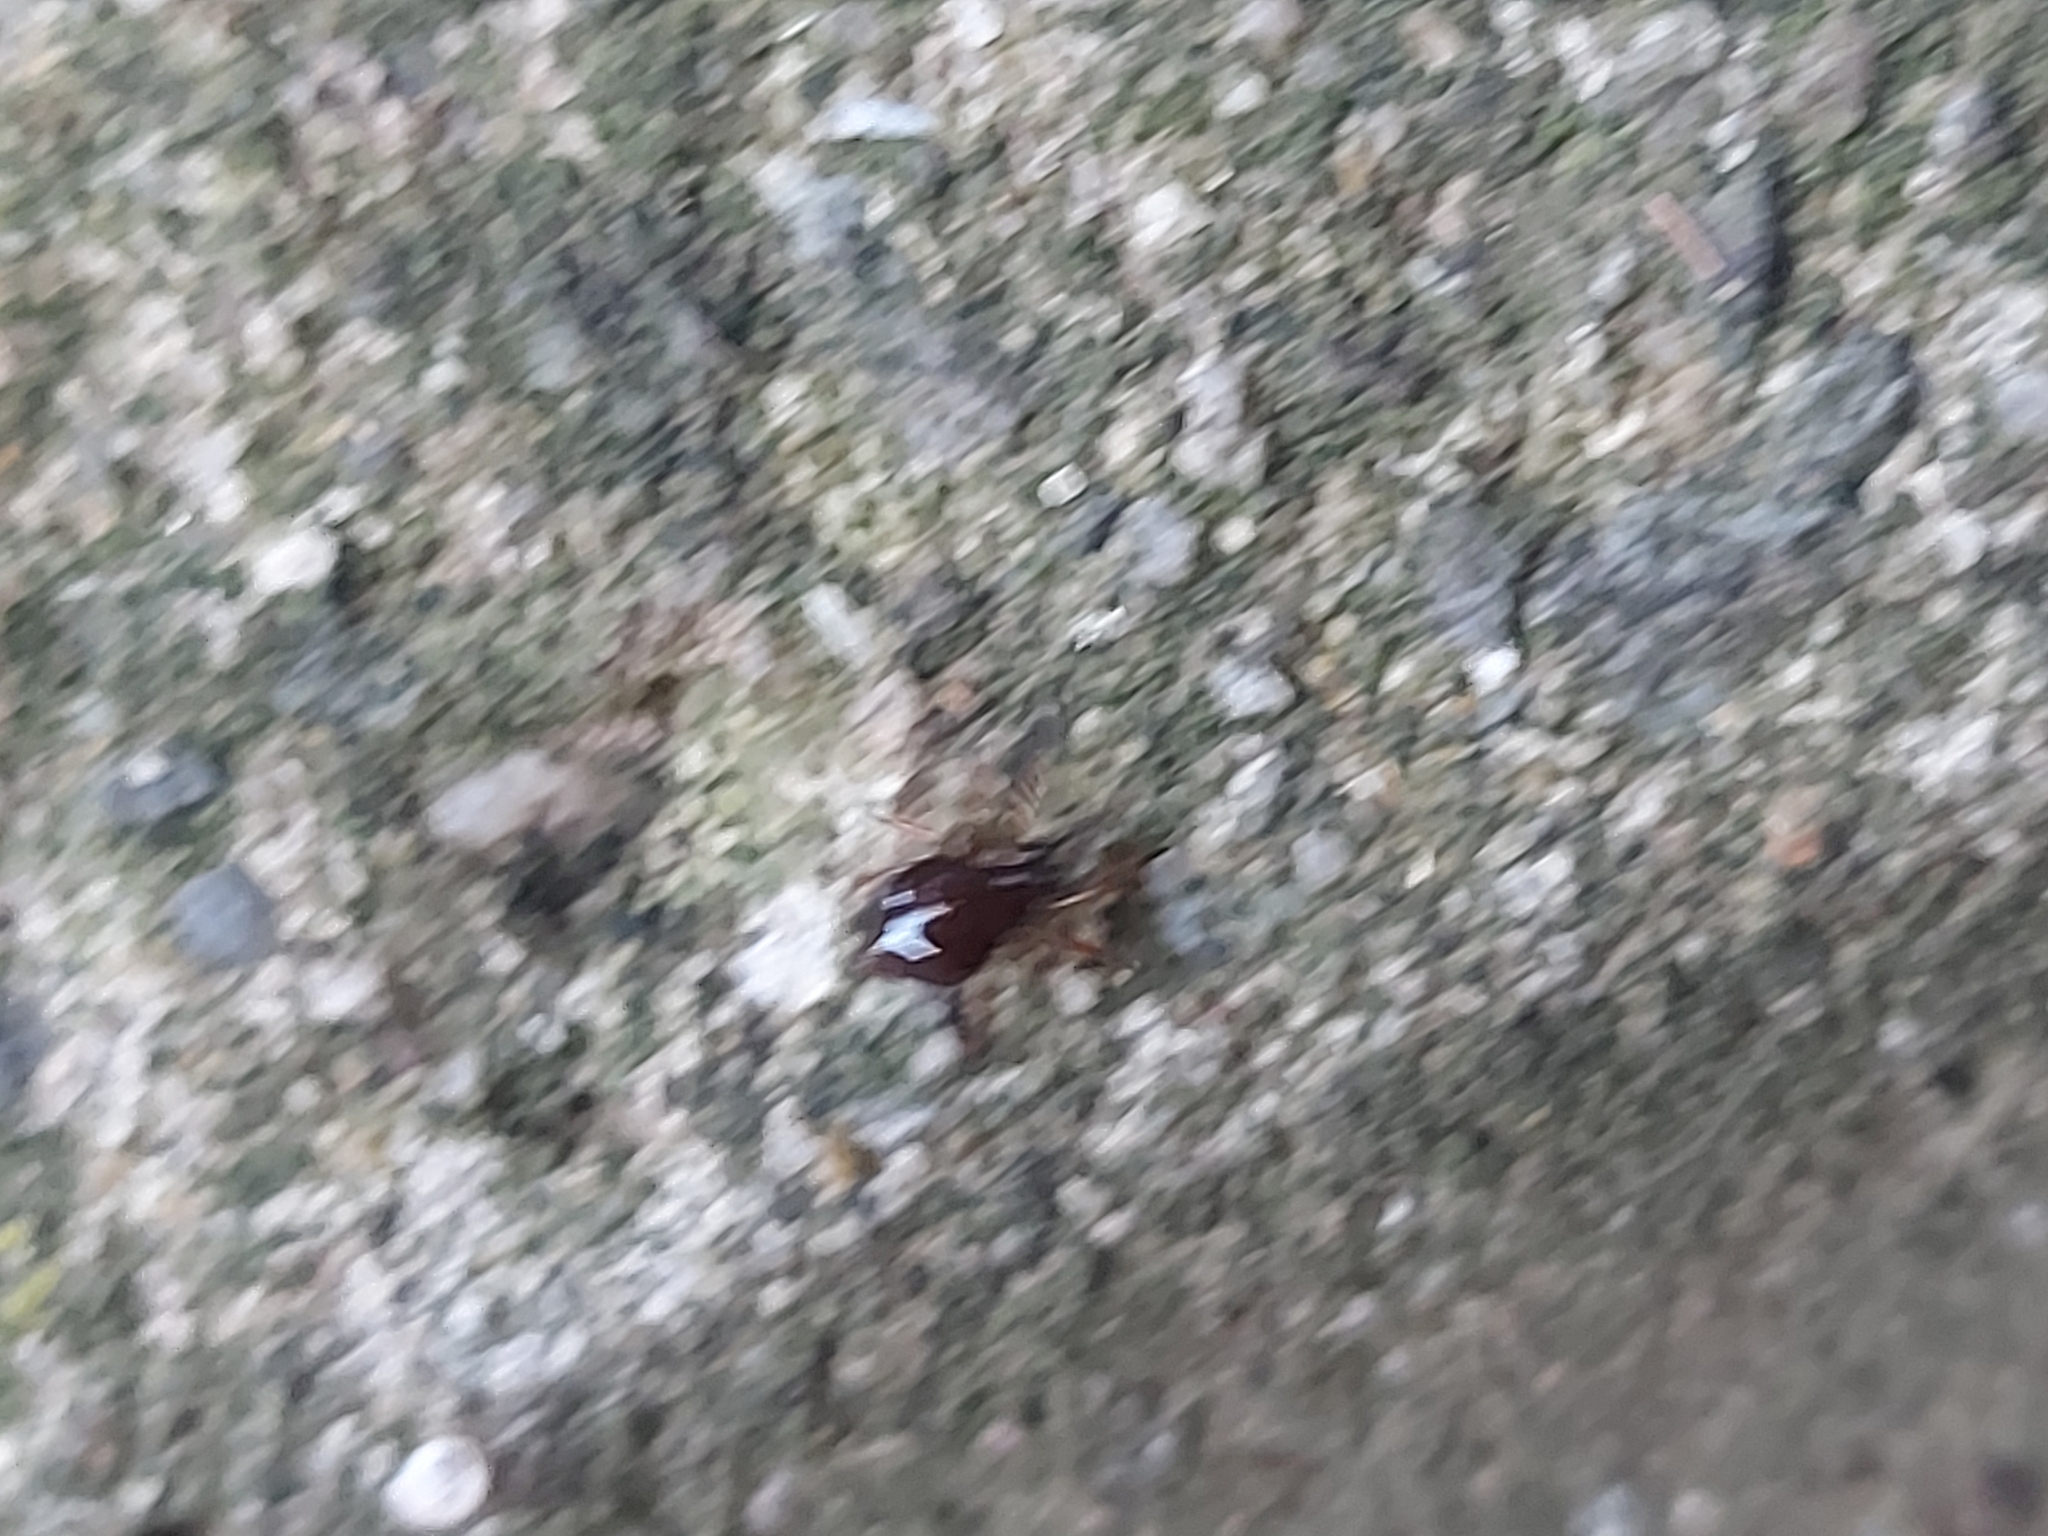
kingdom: Animalia
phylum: Arthropoda
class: Arachnida
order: Araneae
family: Theridiidae
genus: Euryopis
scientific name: Euryopis episinoides
